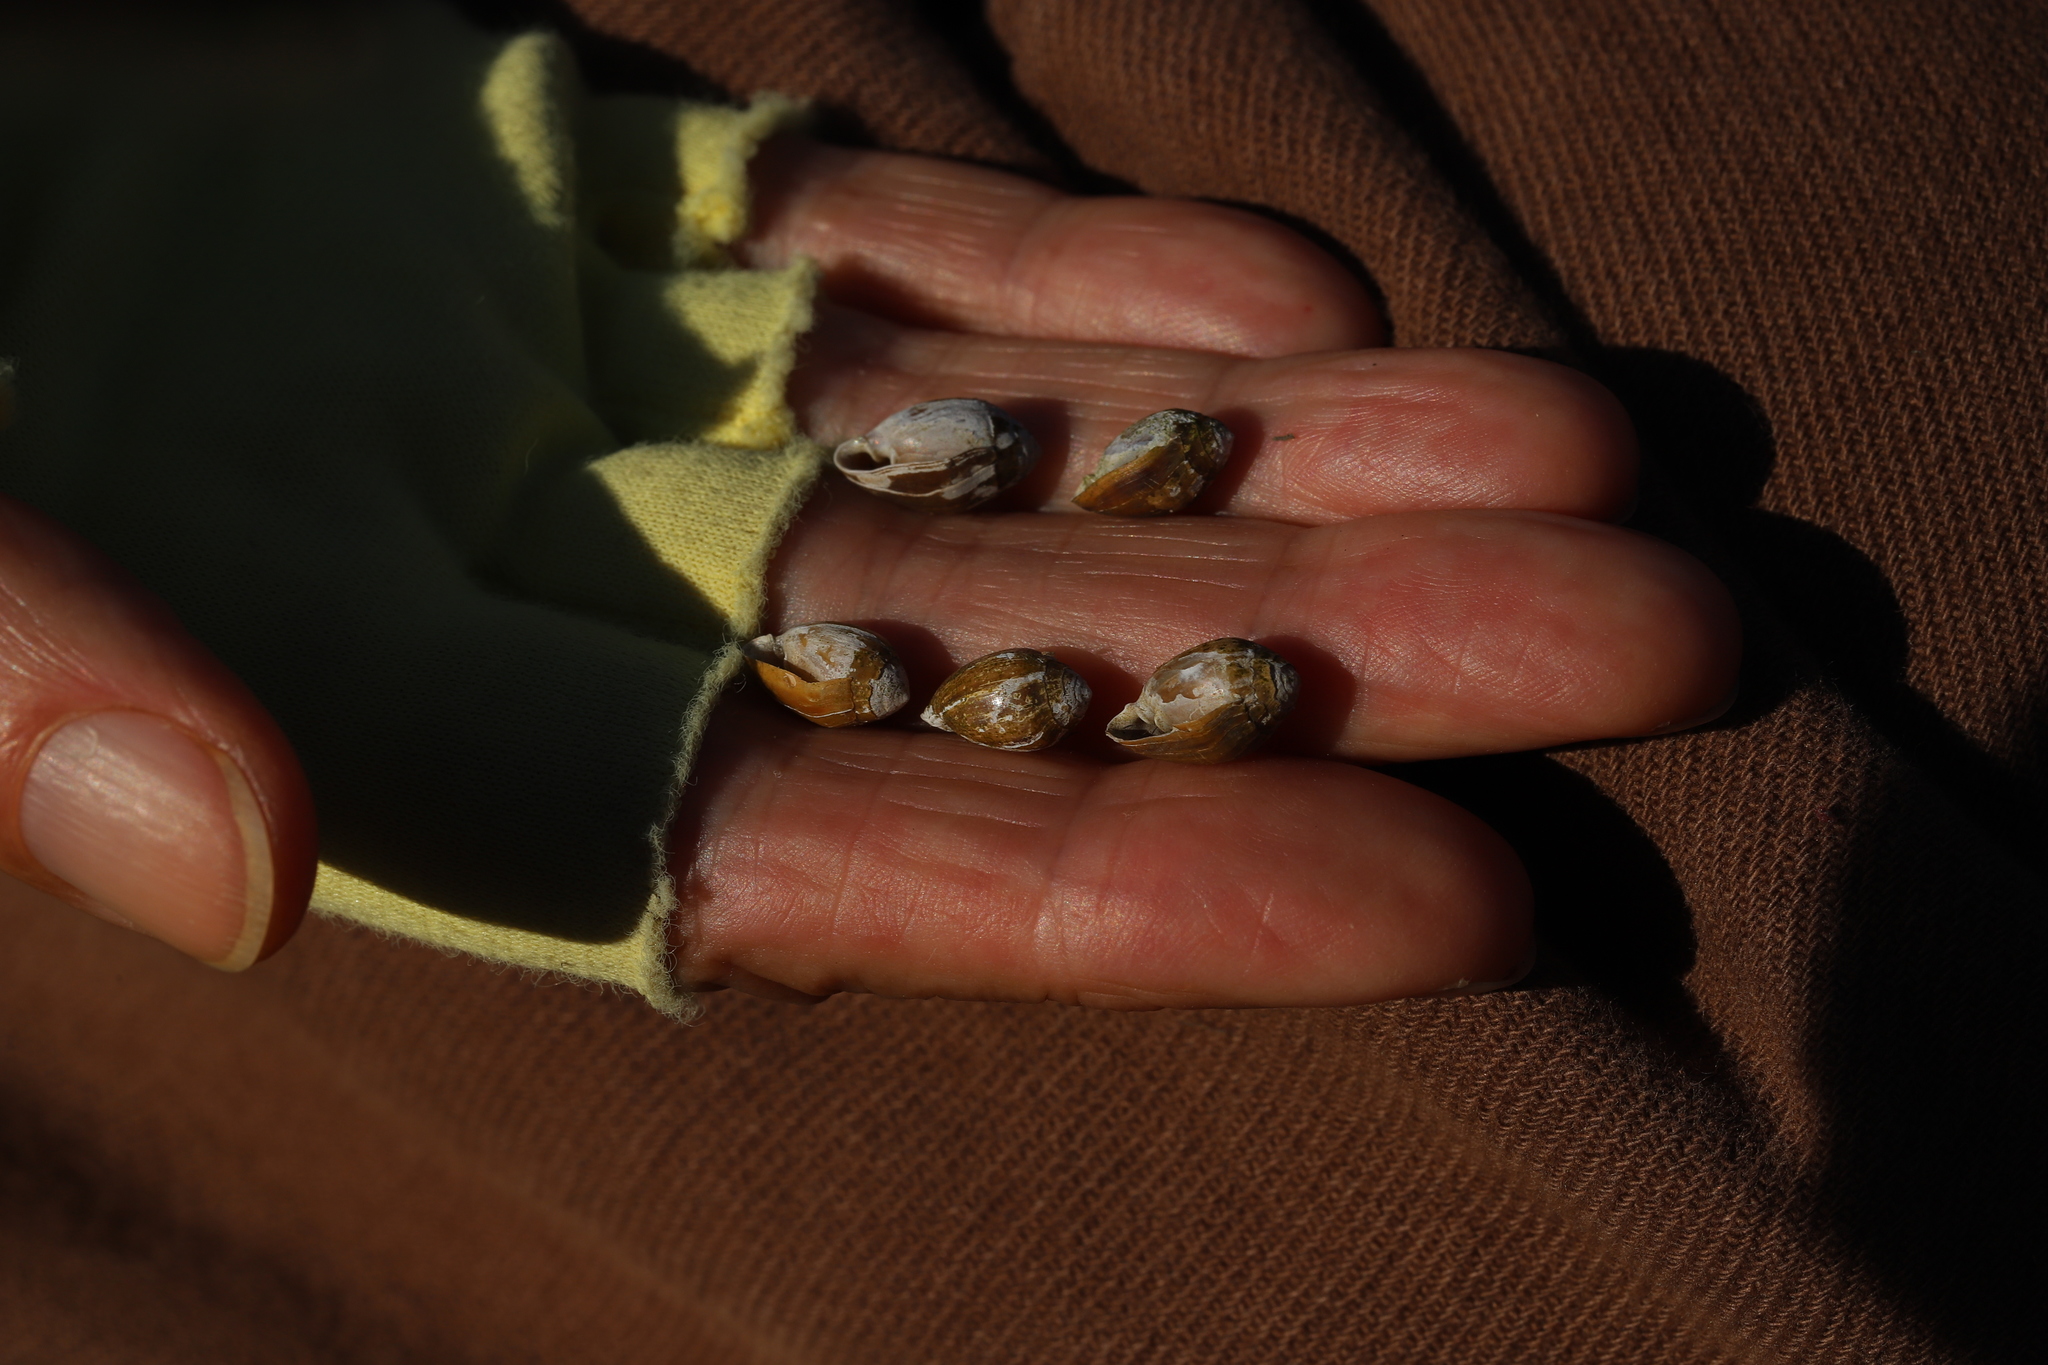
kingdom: Animalia
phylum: Mollusca
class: Gastropoda
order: Ellobiida
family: Ellobiidae
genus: Melampus
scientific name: Melampus bidentatus
